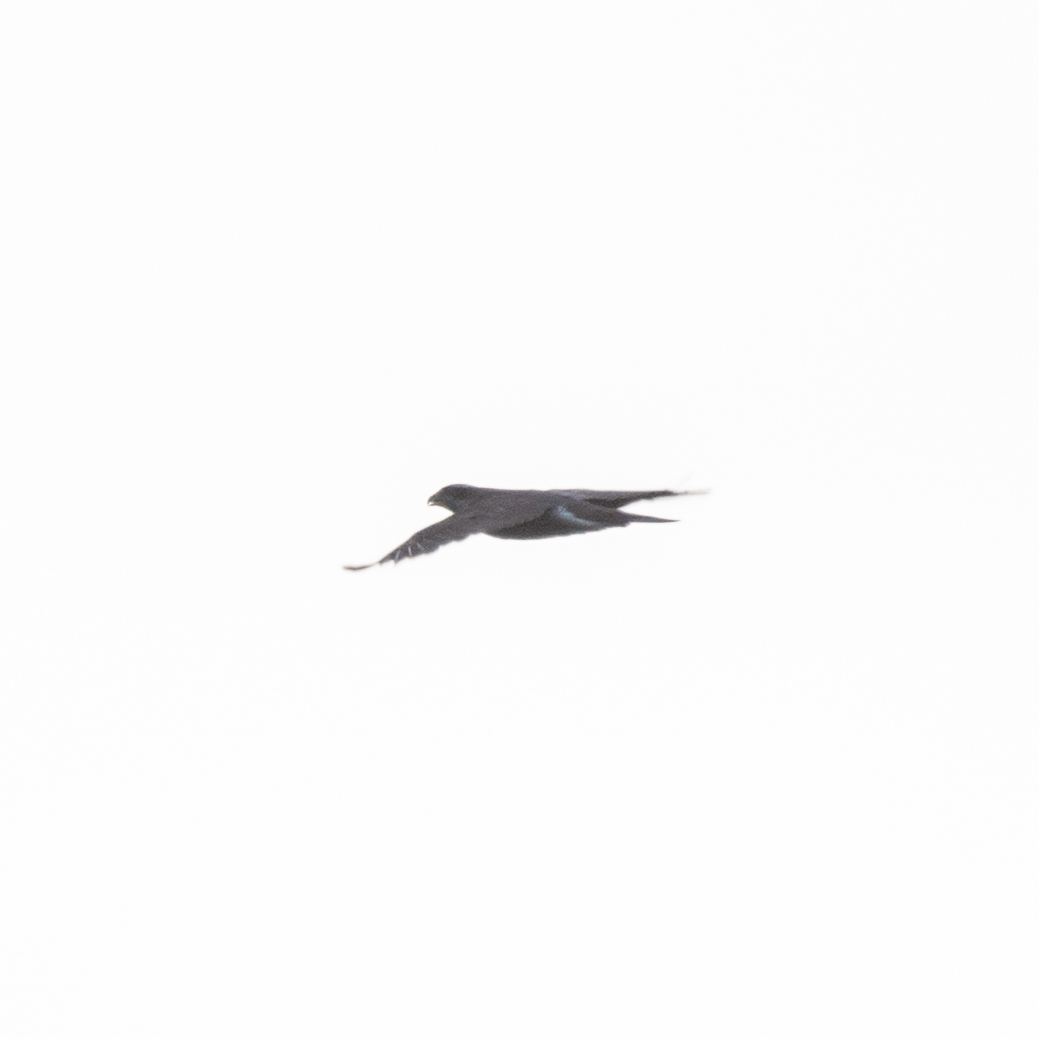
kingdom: Animalia
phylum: Chordata
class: Aves
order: Accipitriformes
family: Accipitridae
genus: Accipiter
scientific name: Accipiter gentilis
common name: Northern goshawk
